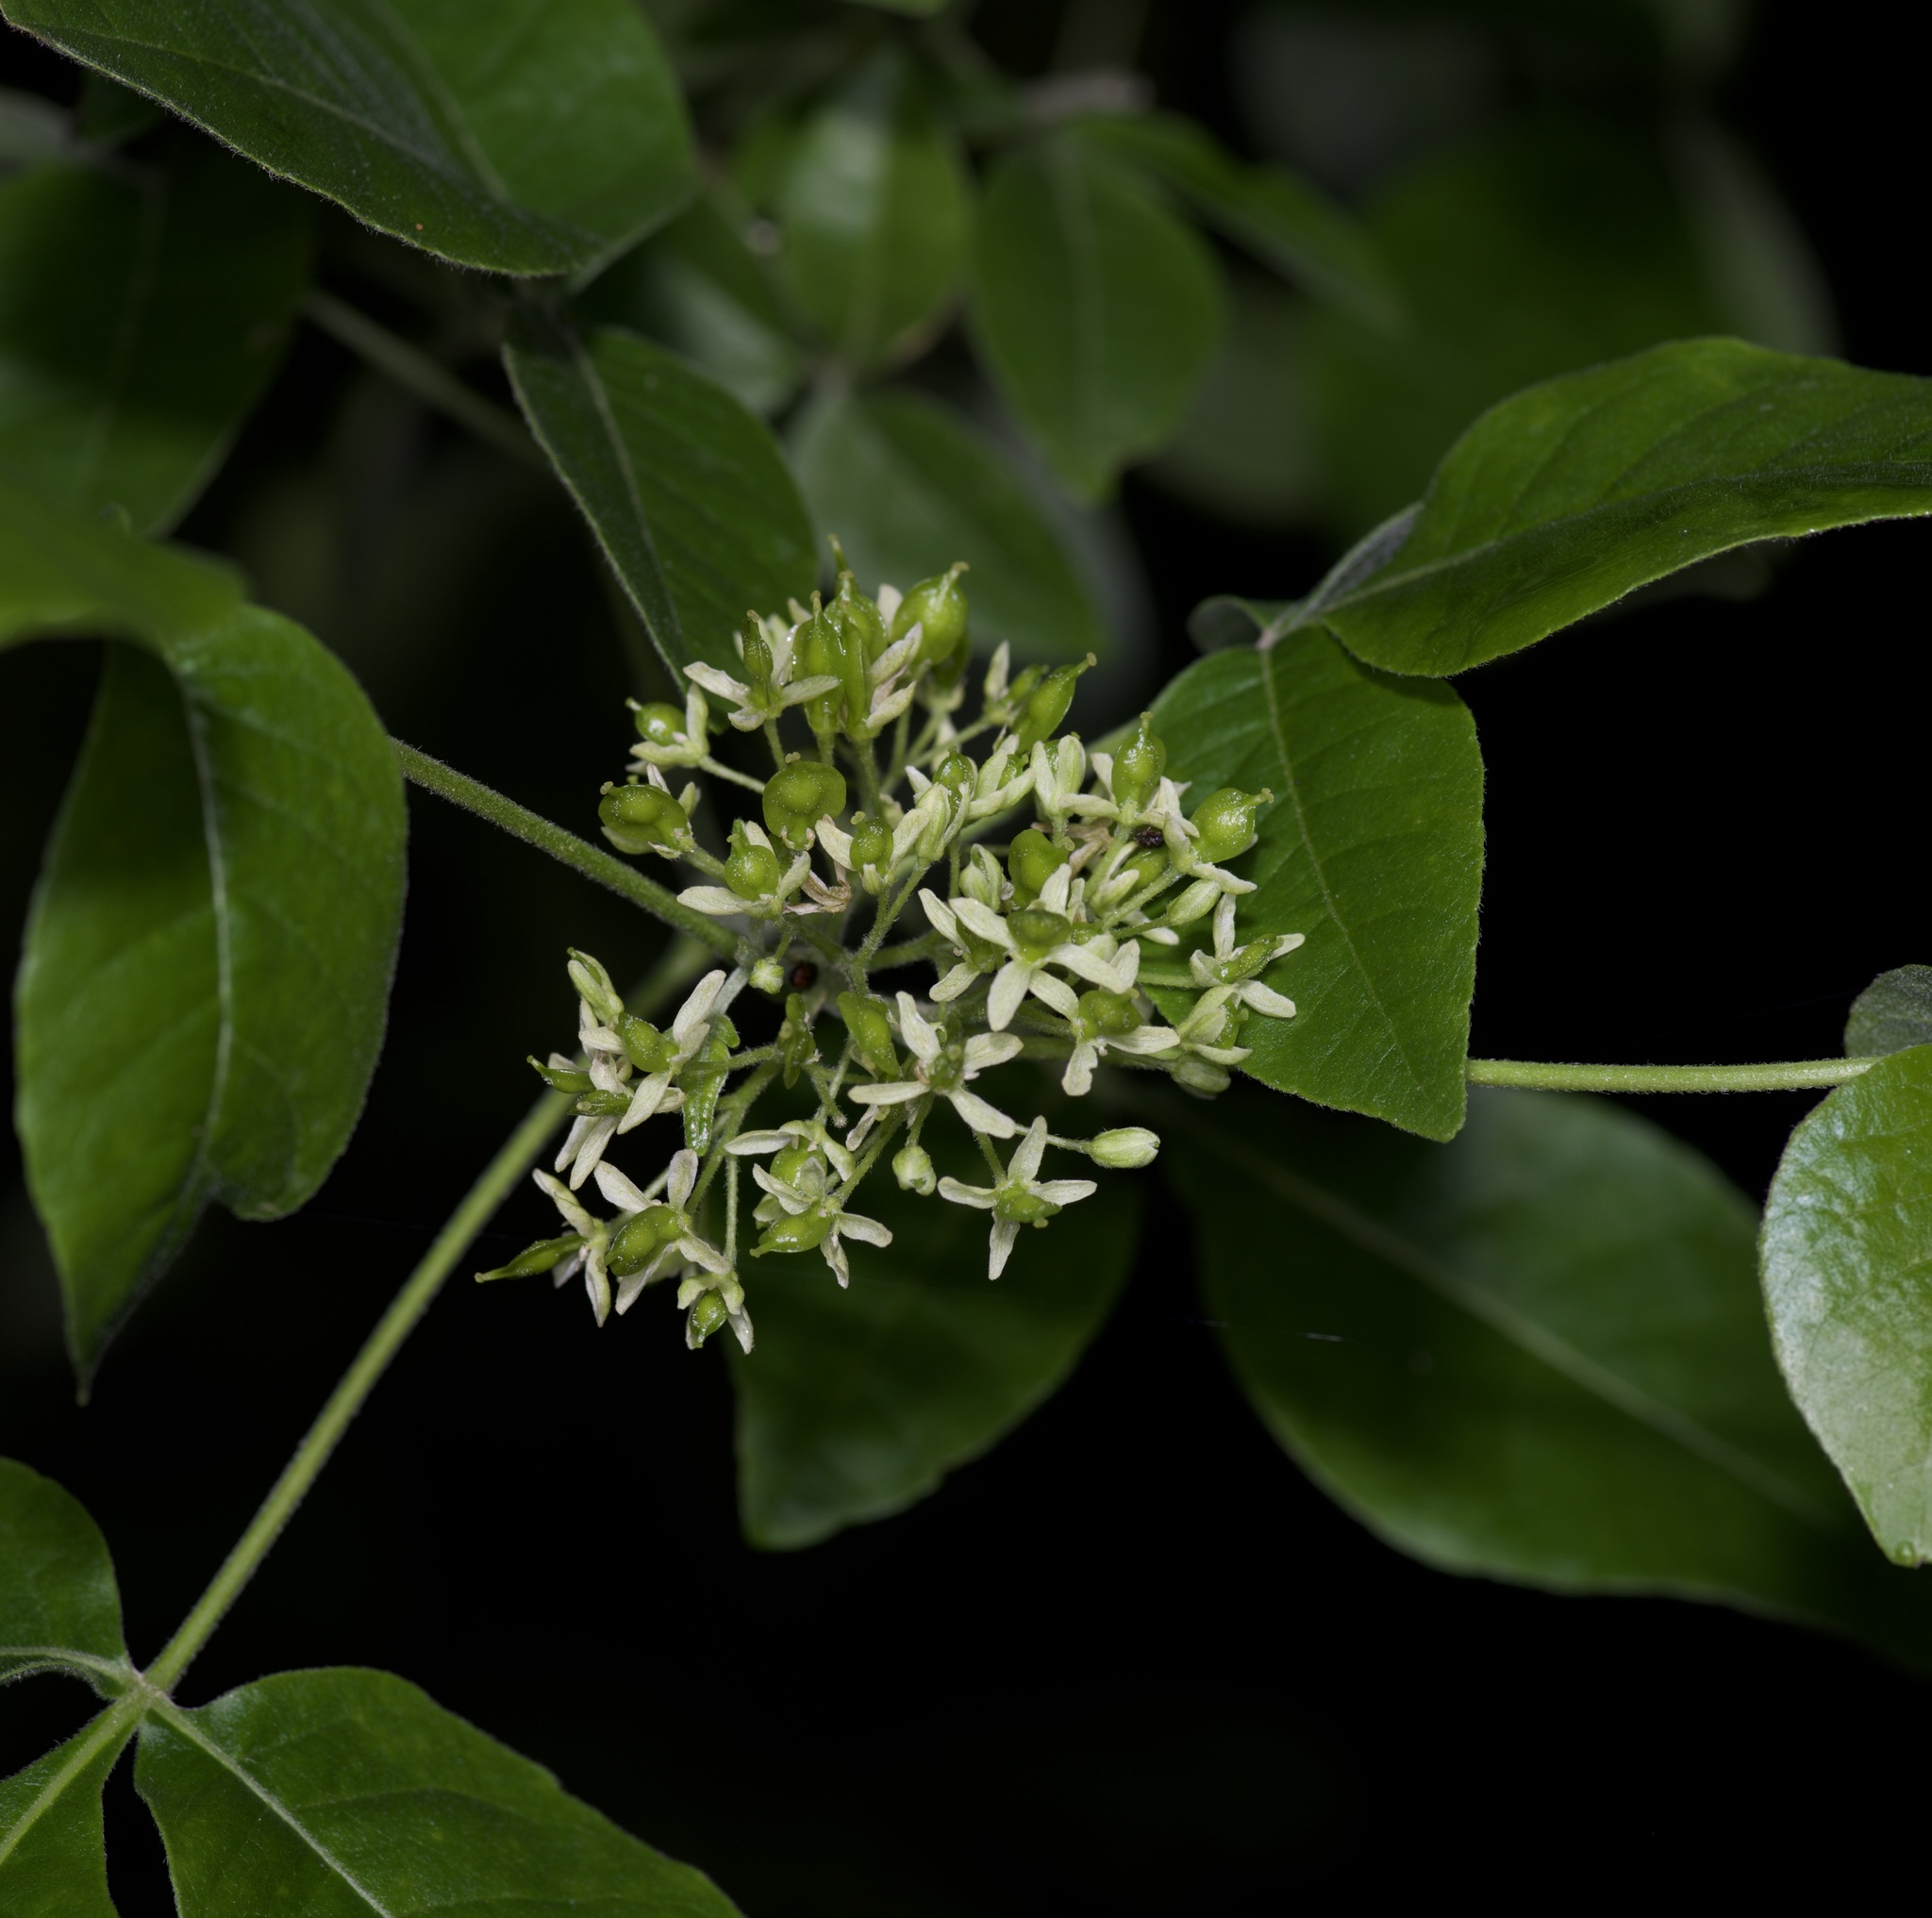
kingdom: Plantae
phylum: Tracheophyta
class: Magnoliopsida
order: Sapindales
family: Rutaceae
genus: Ptelea
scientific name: Ptelea trifoliata
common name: Common hop-tree
